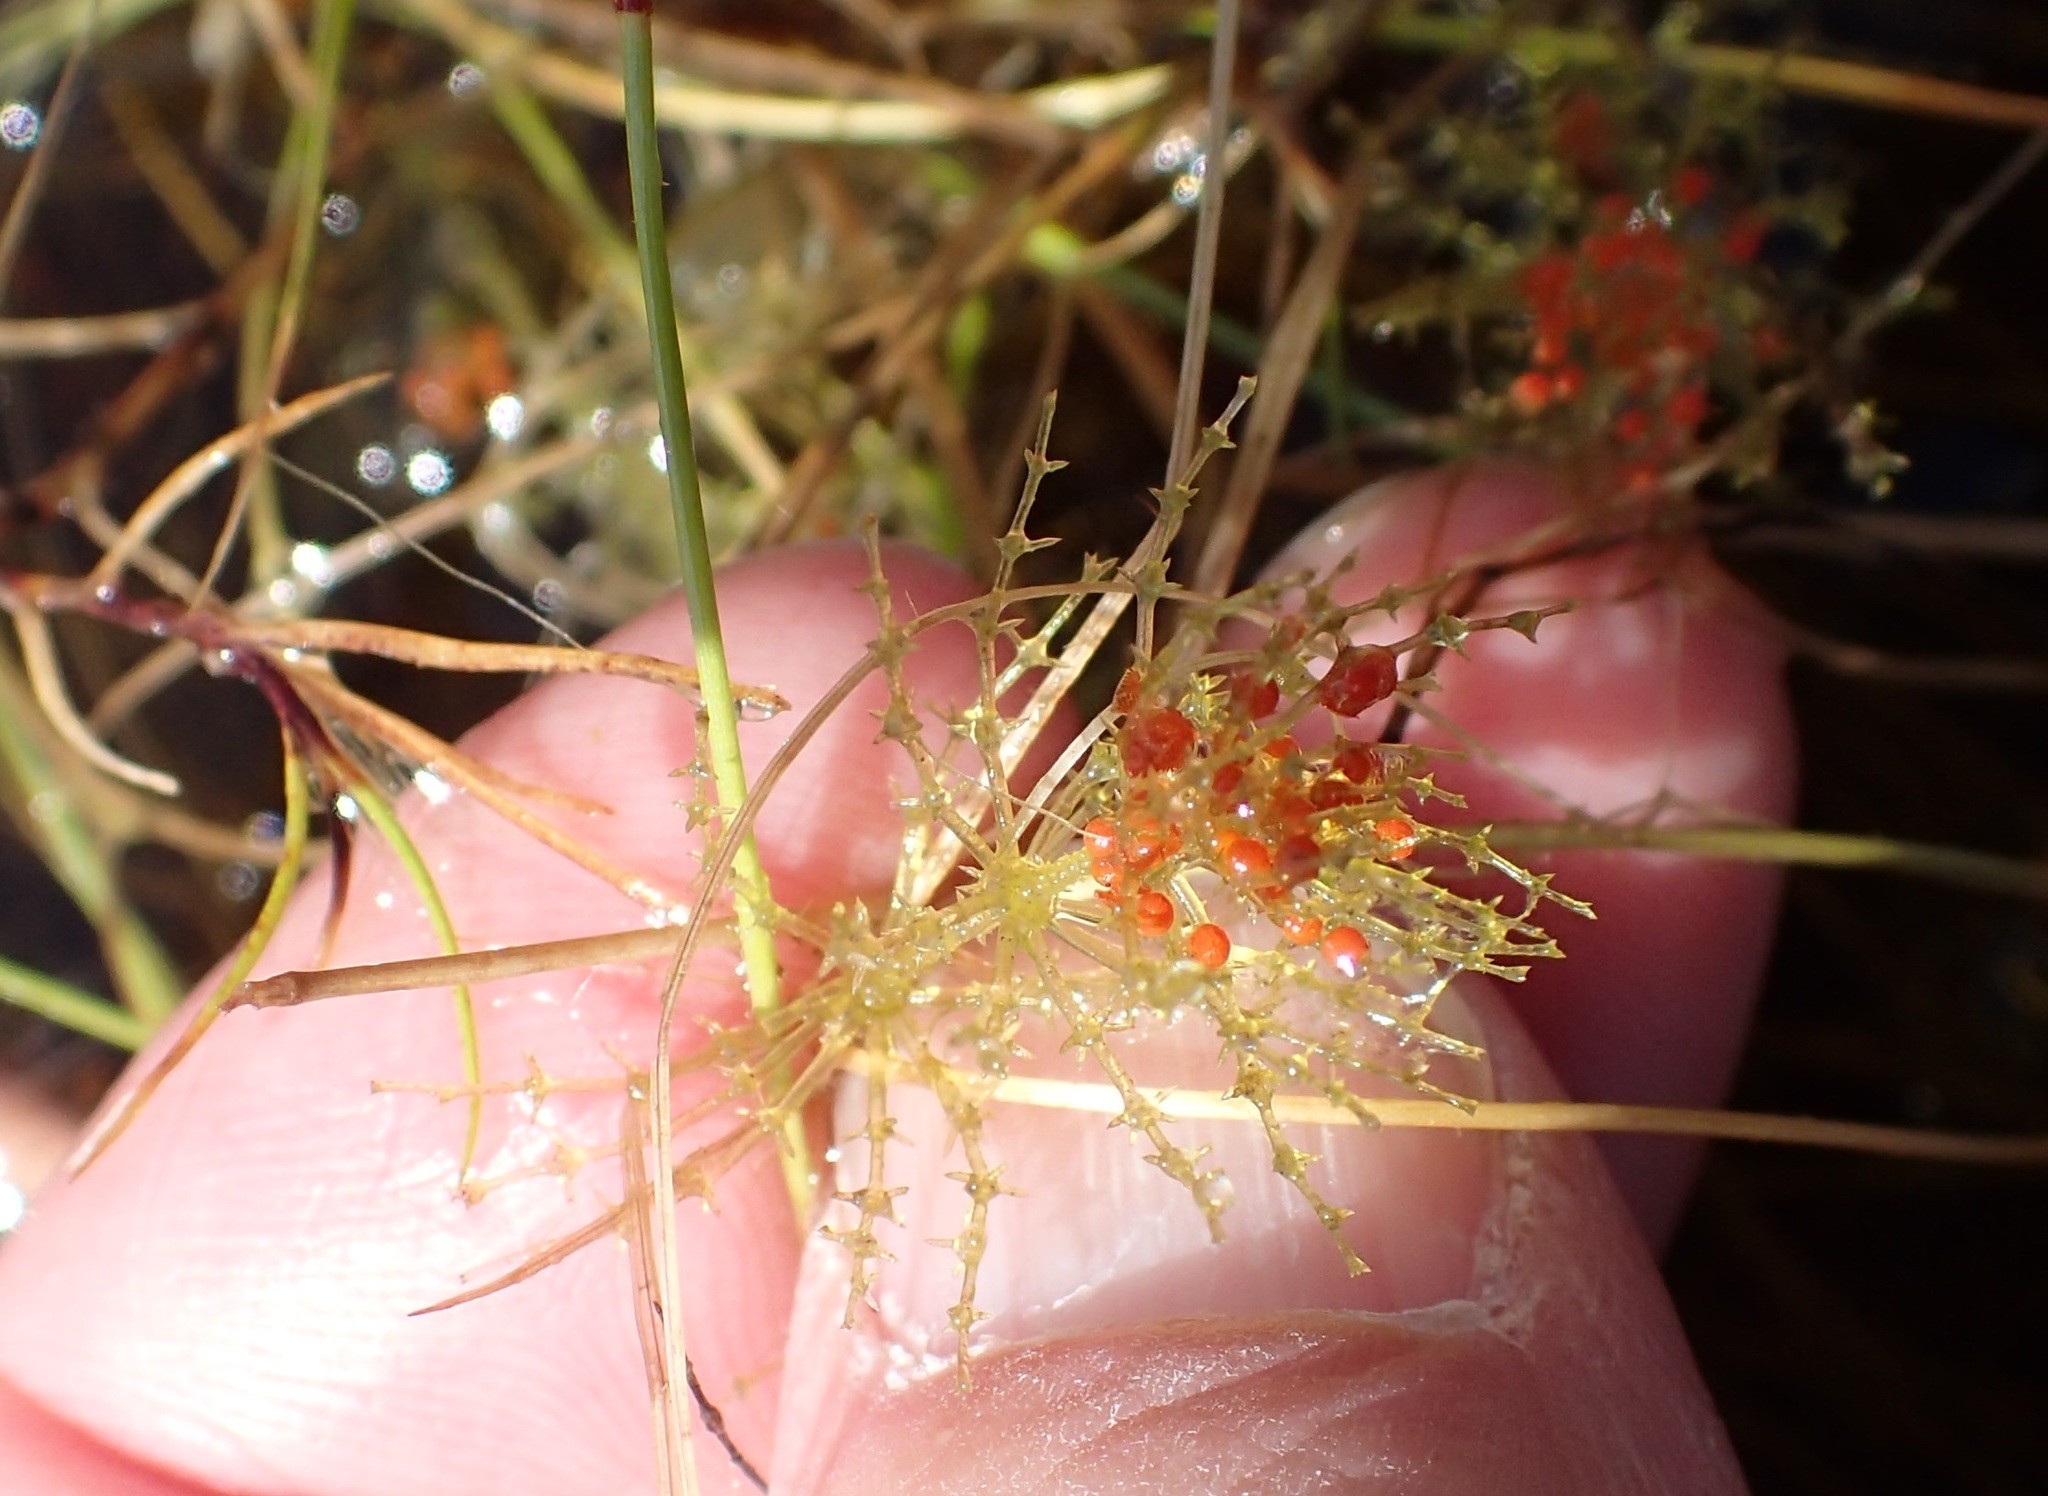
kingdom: Plantae
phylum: Charophyta
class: Charophyceae
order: Charales
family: Characeae
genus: Chara
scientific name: Chara
